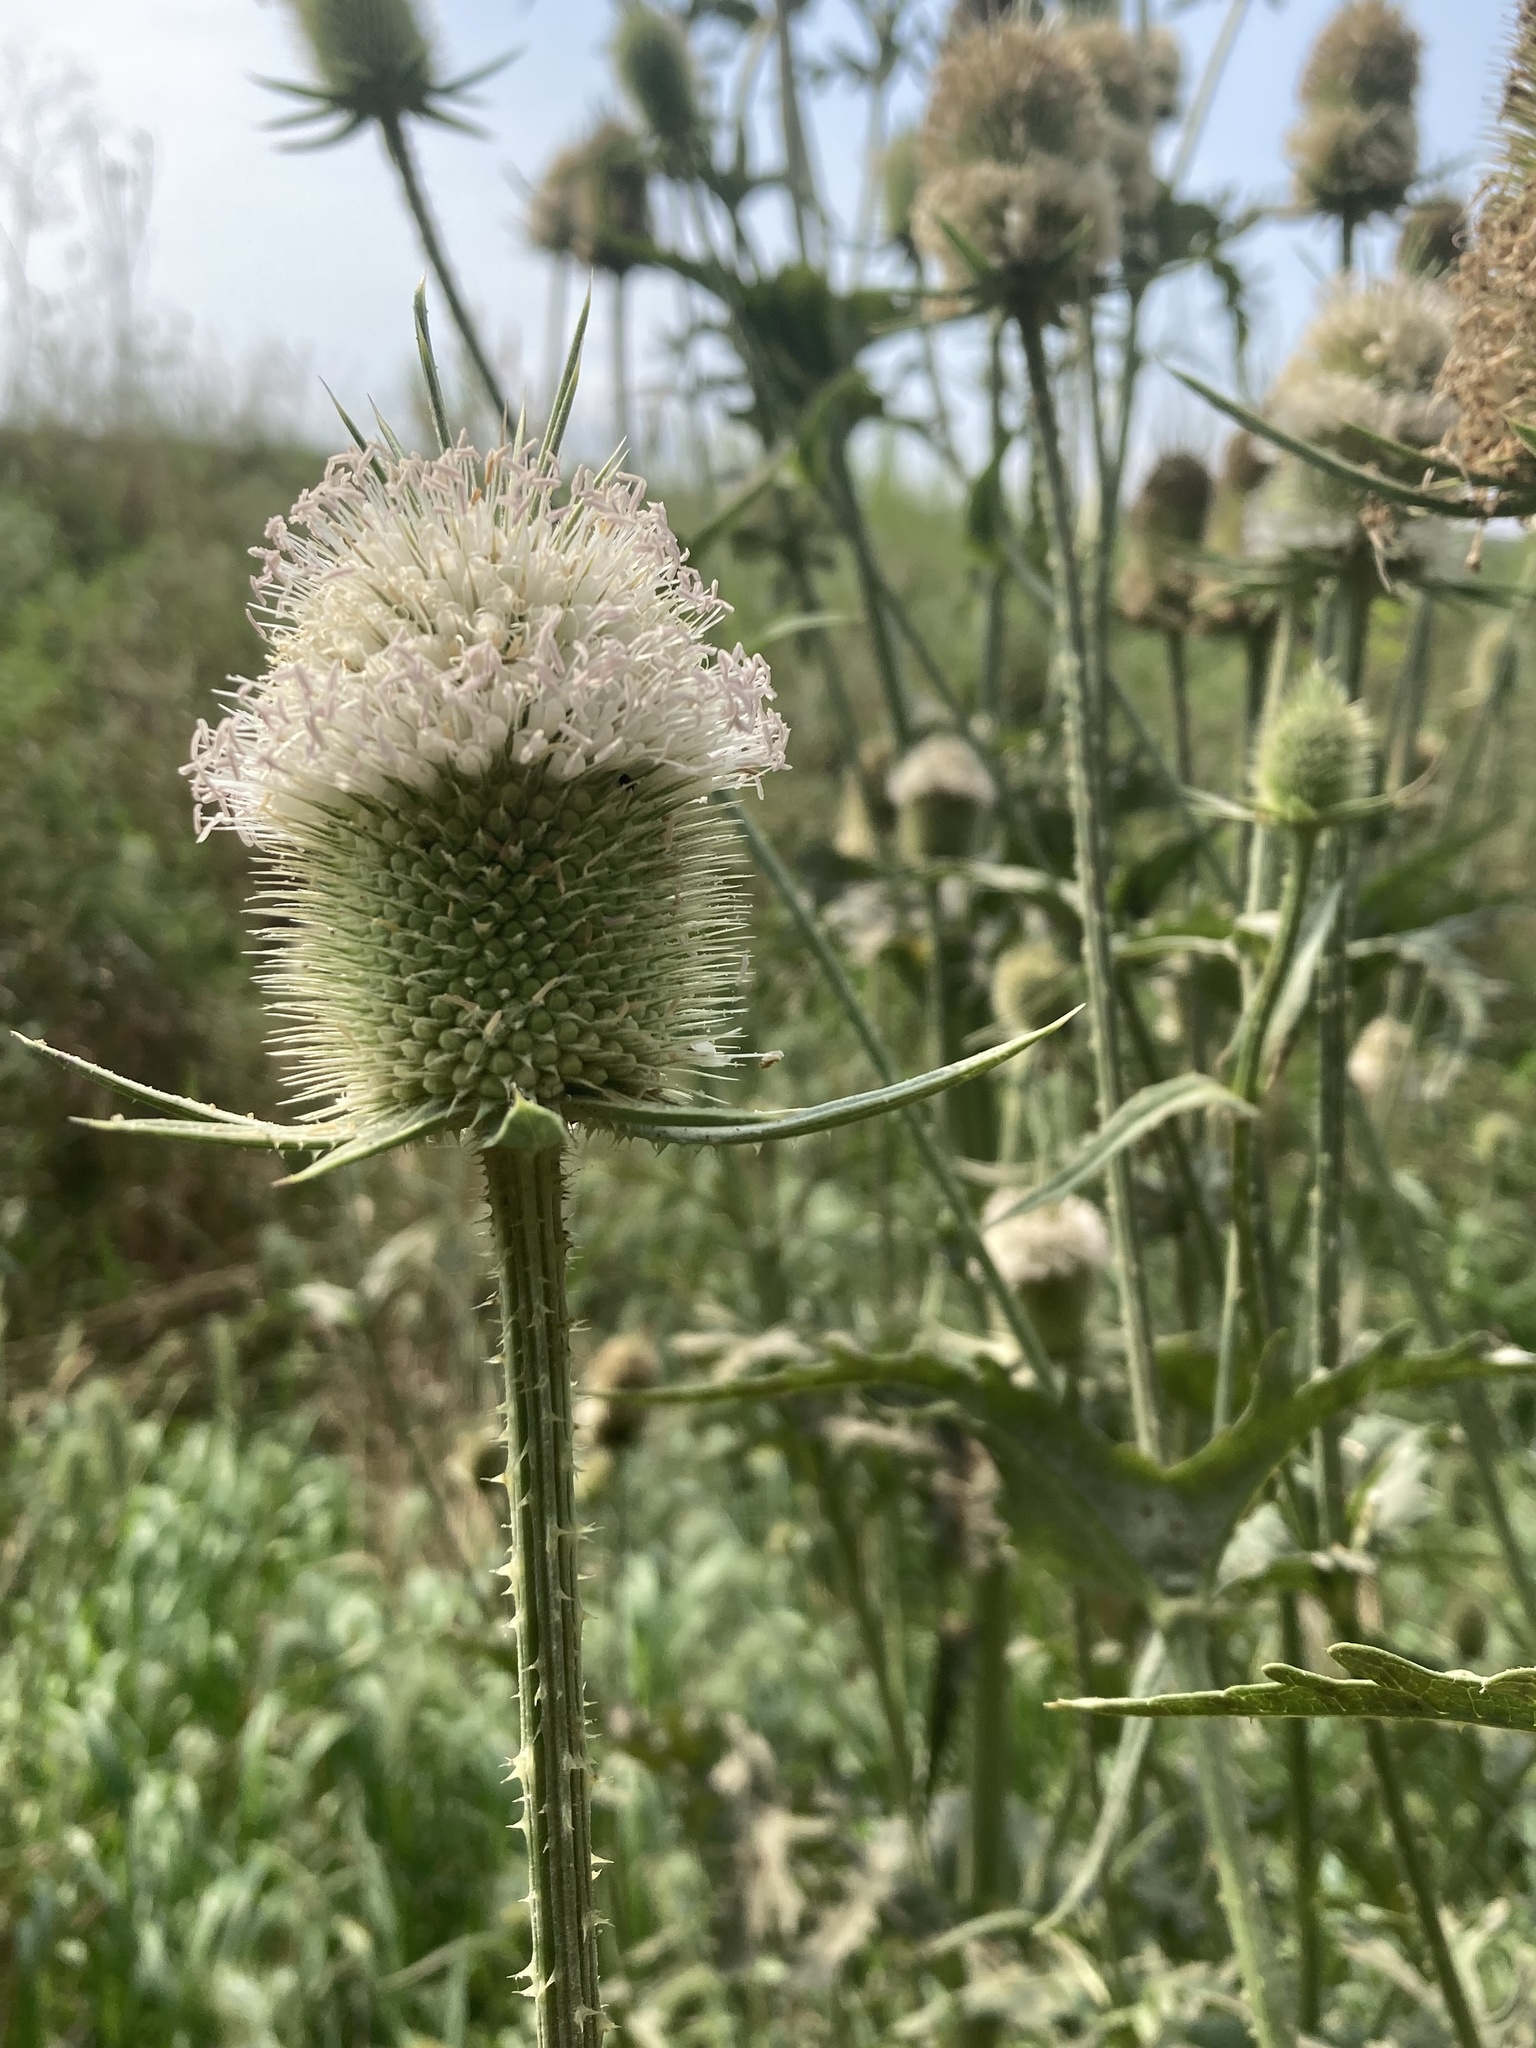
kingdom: Plantae
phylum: Tracheophyta
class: Magnoliopsida
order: Dipsacales
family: Caprifoliaceae
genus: Dipsacus
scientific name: Dipsacus laciniatus
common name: Cut-leaved teasel
